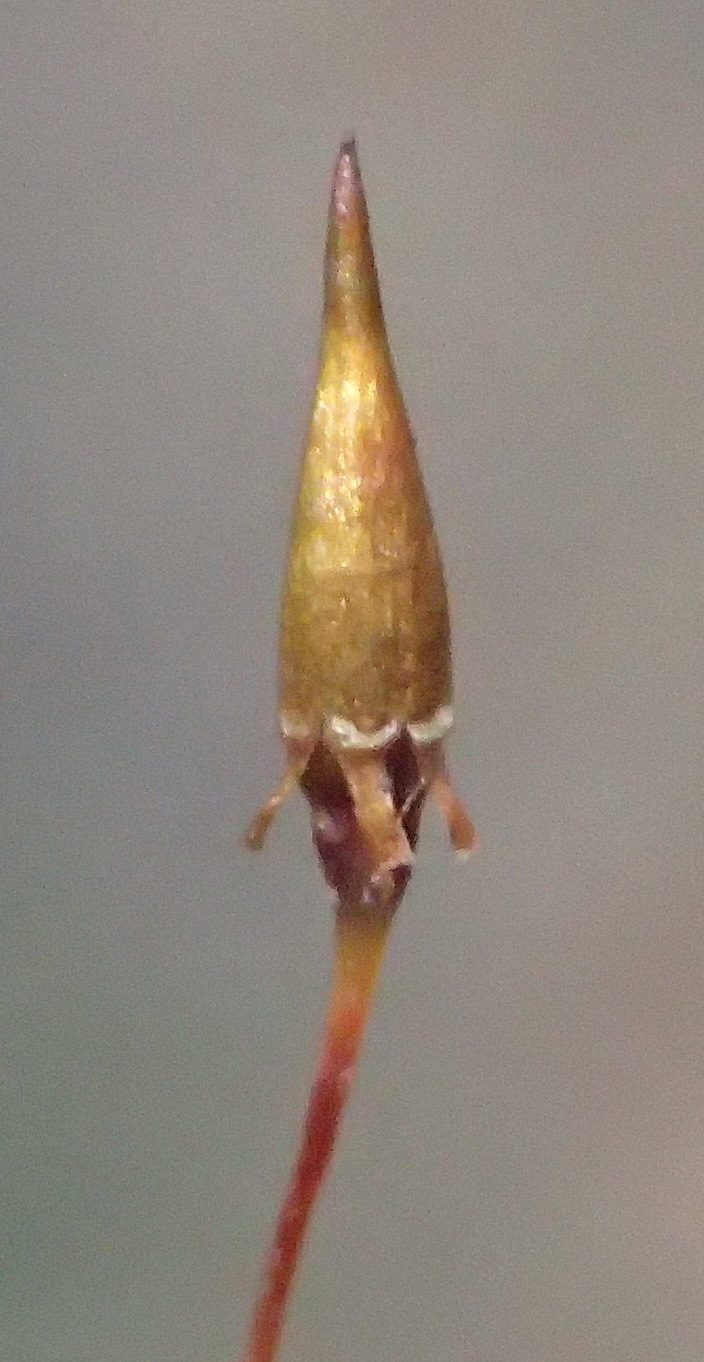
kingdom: Plantae
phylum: Bryophyta
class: Bryopsida
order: Orthotrichales
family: Orthotrichaceae
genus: Schlotheimia
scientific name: Schlotheimia rufopallens
